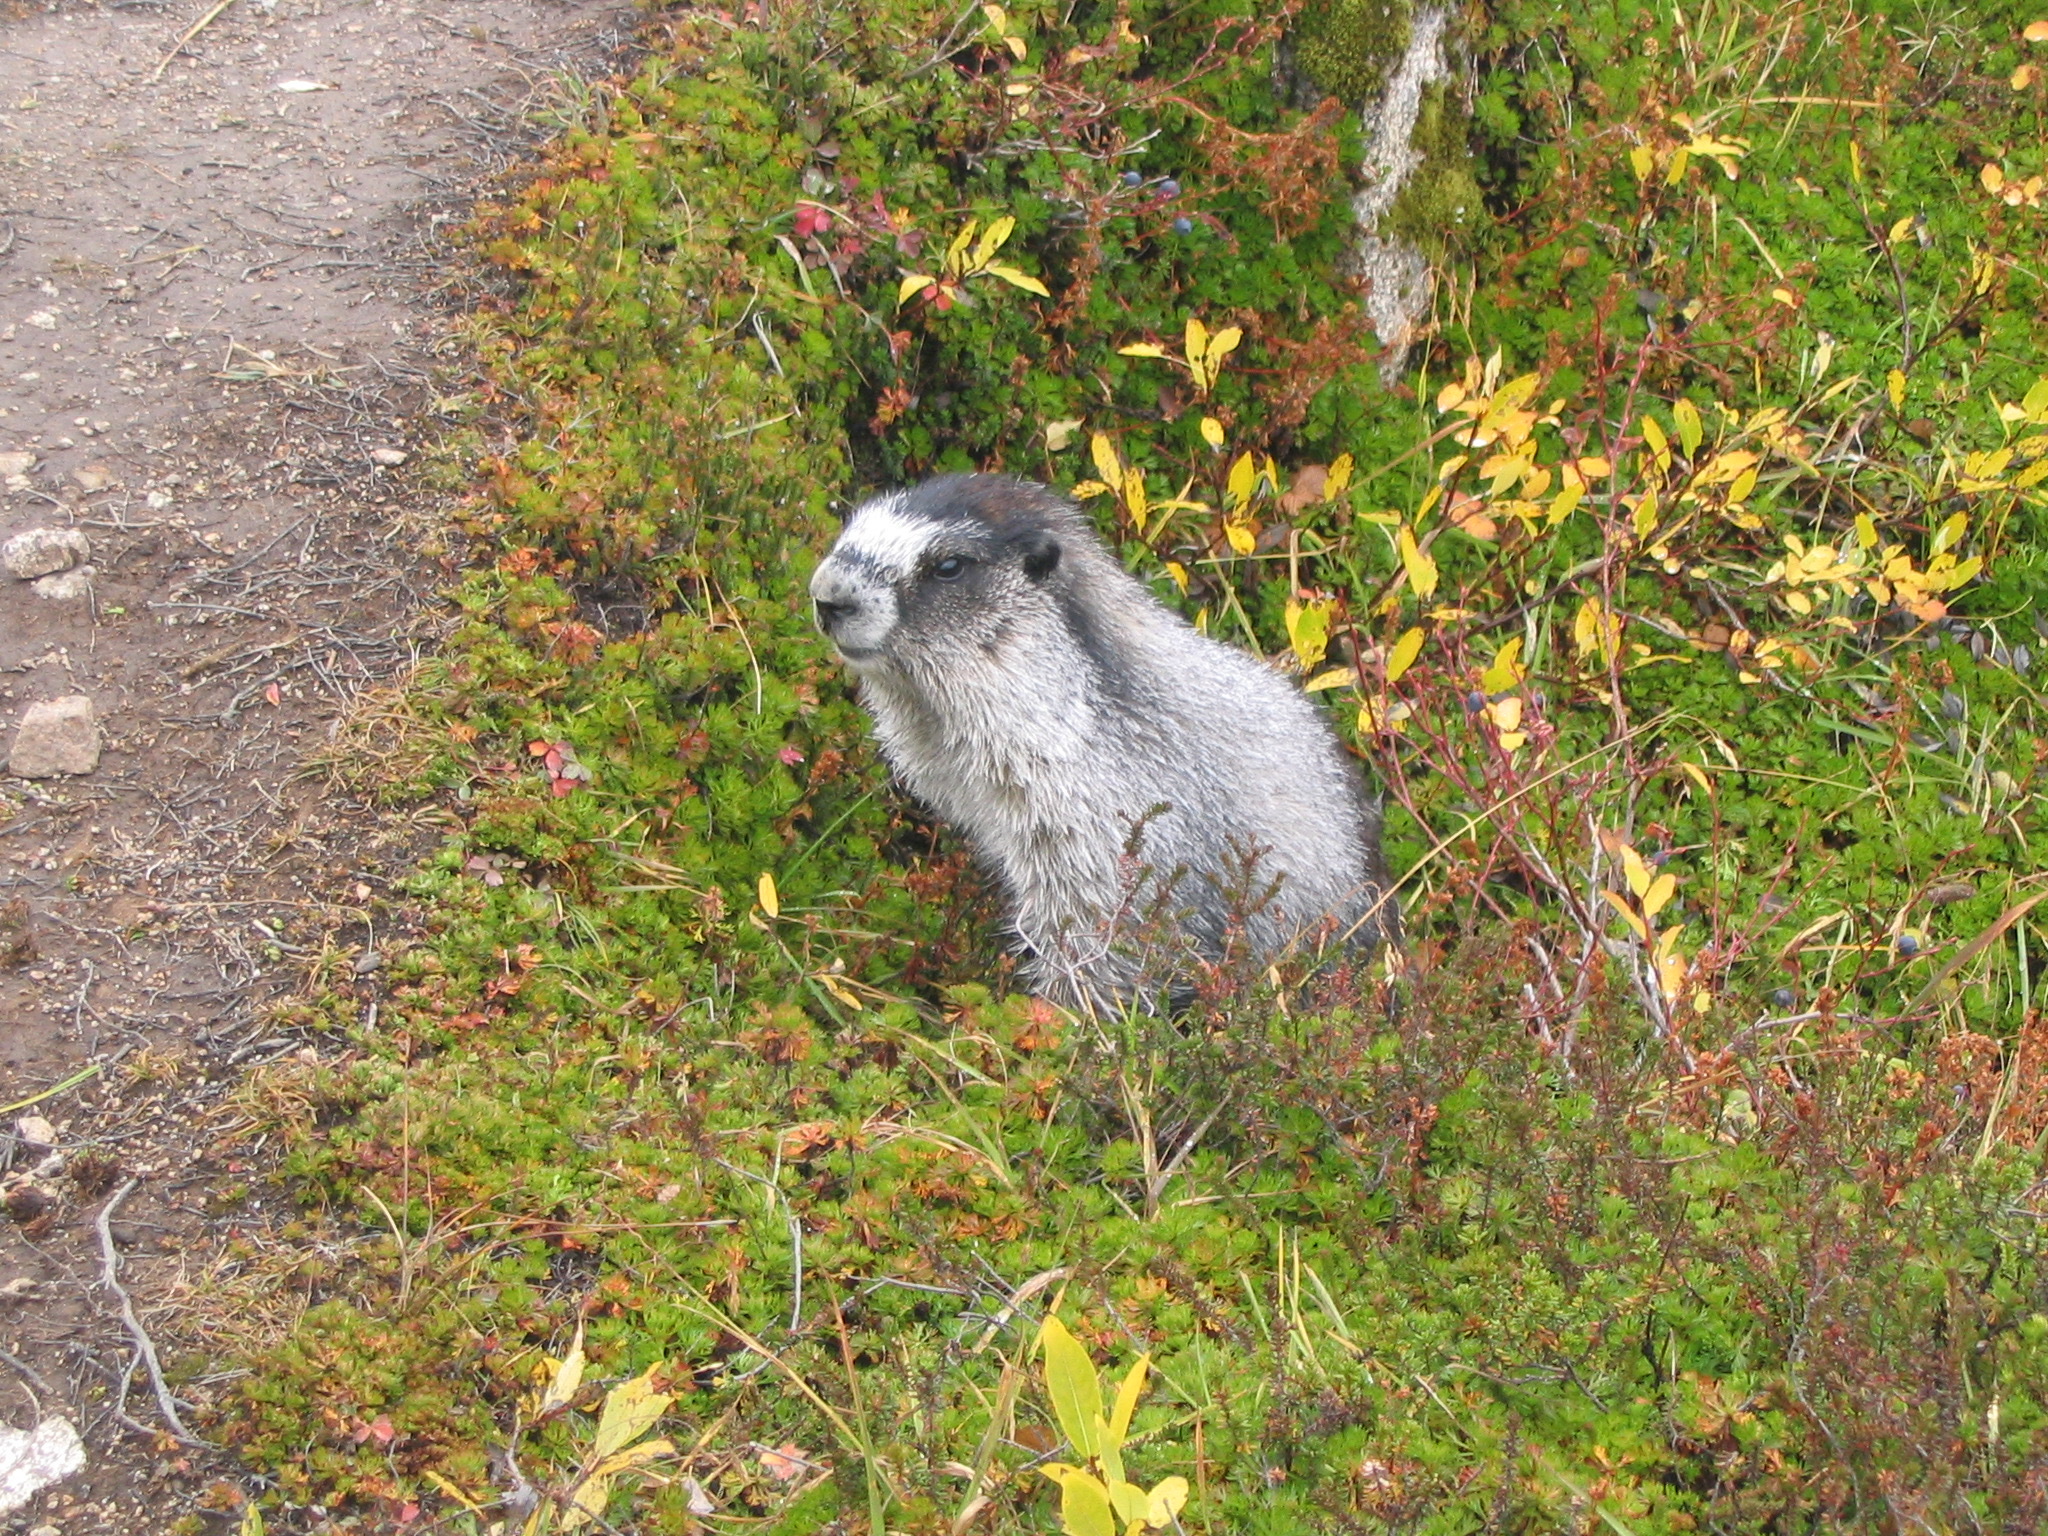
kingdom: Animalia
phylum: Chordata
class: Mammalia
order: Rodentia
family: Sciuridae
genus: Marmota
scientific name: Marmota caligata
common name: Hoary marmot
